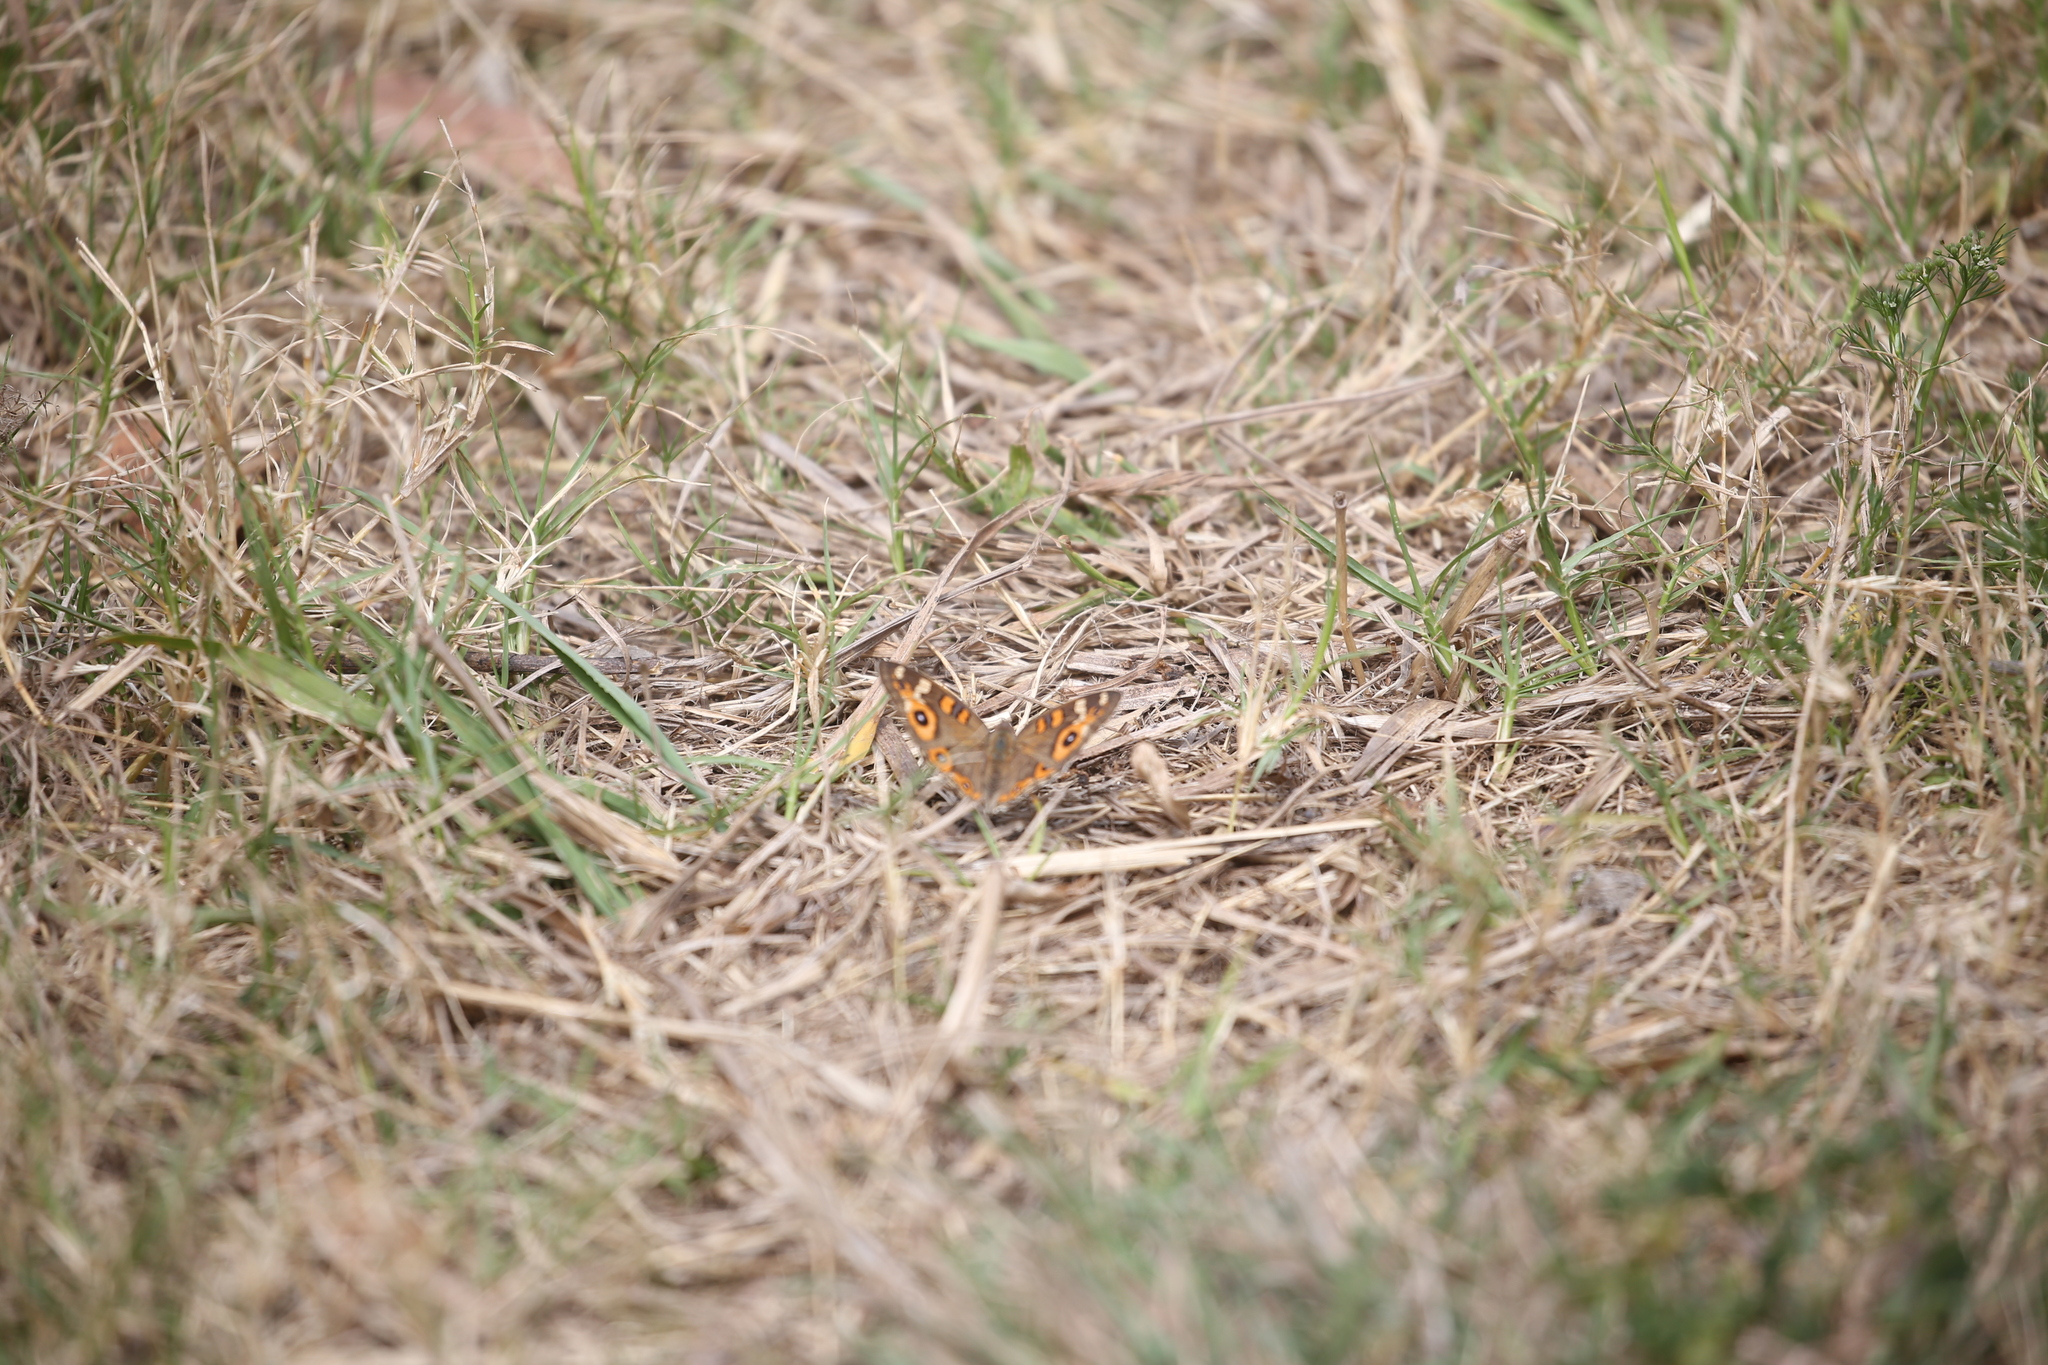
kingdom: Animalia
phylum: Arthropoda
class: Insecta
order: Lepidoptera
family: Nymphalidae
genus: Junonia
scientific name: Junonia villida
